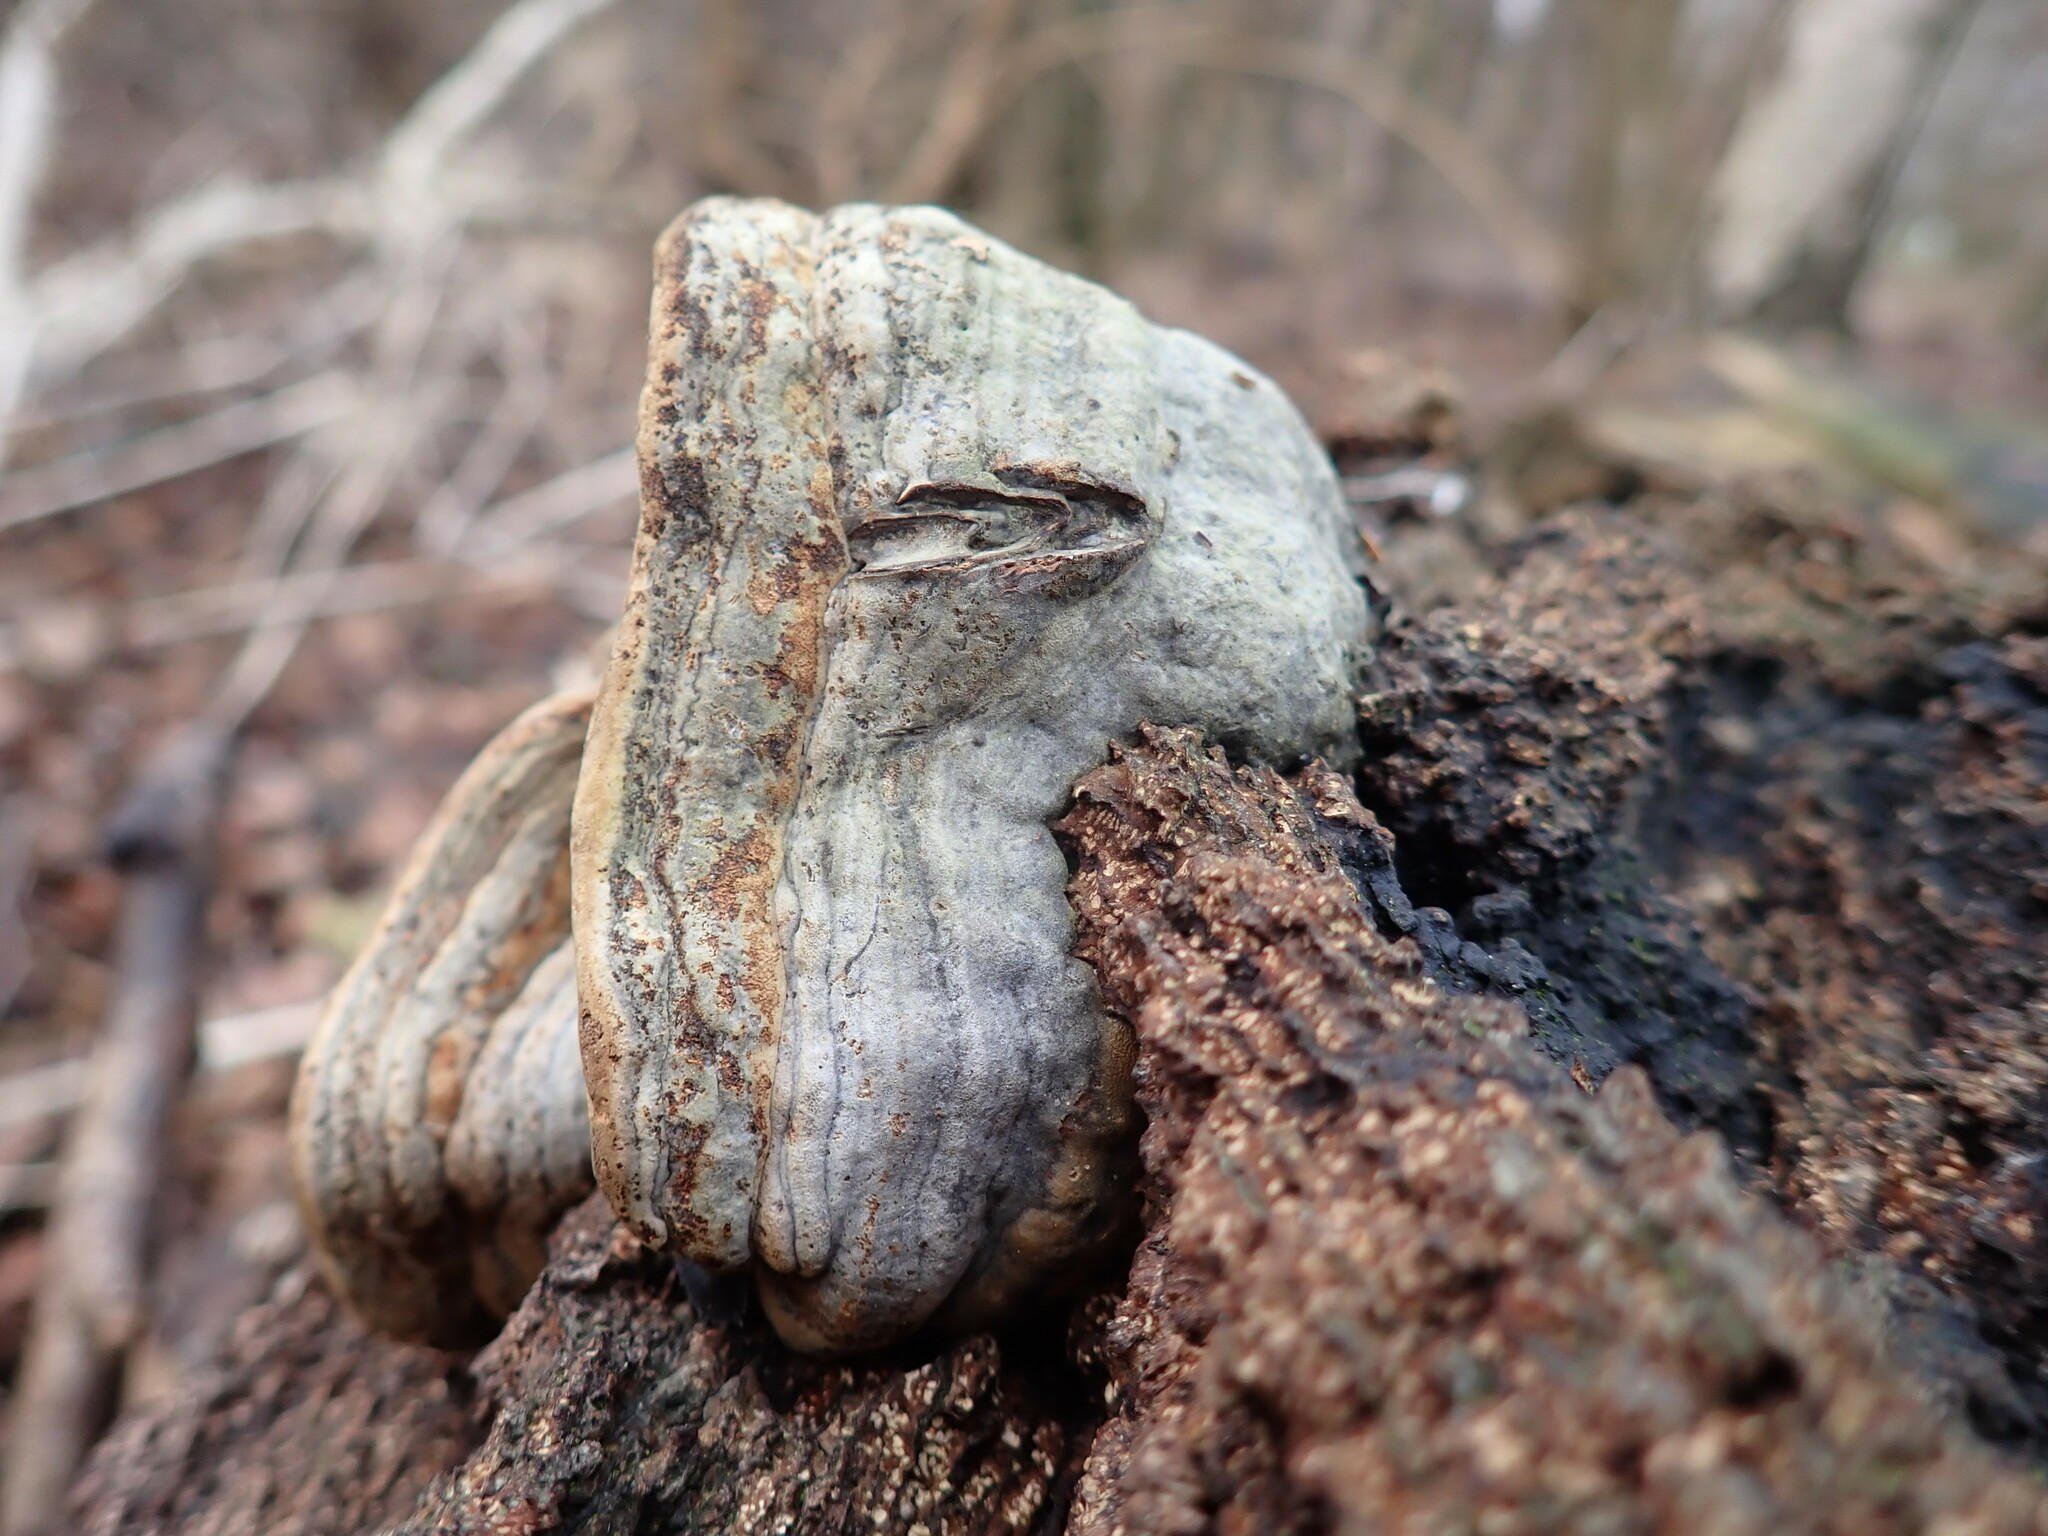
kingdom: Fungi
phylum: Basidiomycota
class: Agaricomycetes
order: Polyporales
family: Polyporaceae
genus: Fomes
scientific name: Fomes fomentarius
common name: Hoof fungus
